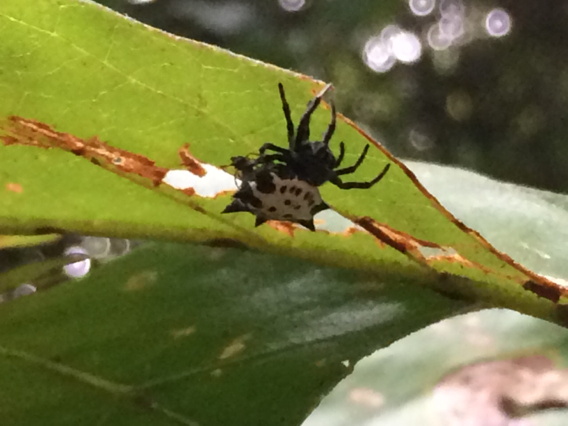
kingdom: Animalia
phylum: Arthropoda
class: Arachnida
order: Araneae
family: Araneidae
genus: Gasteracantha
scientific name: Gasteracantha cancriformis
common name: Orb weavers
